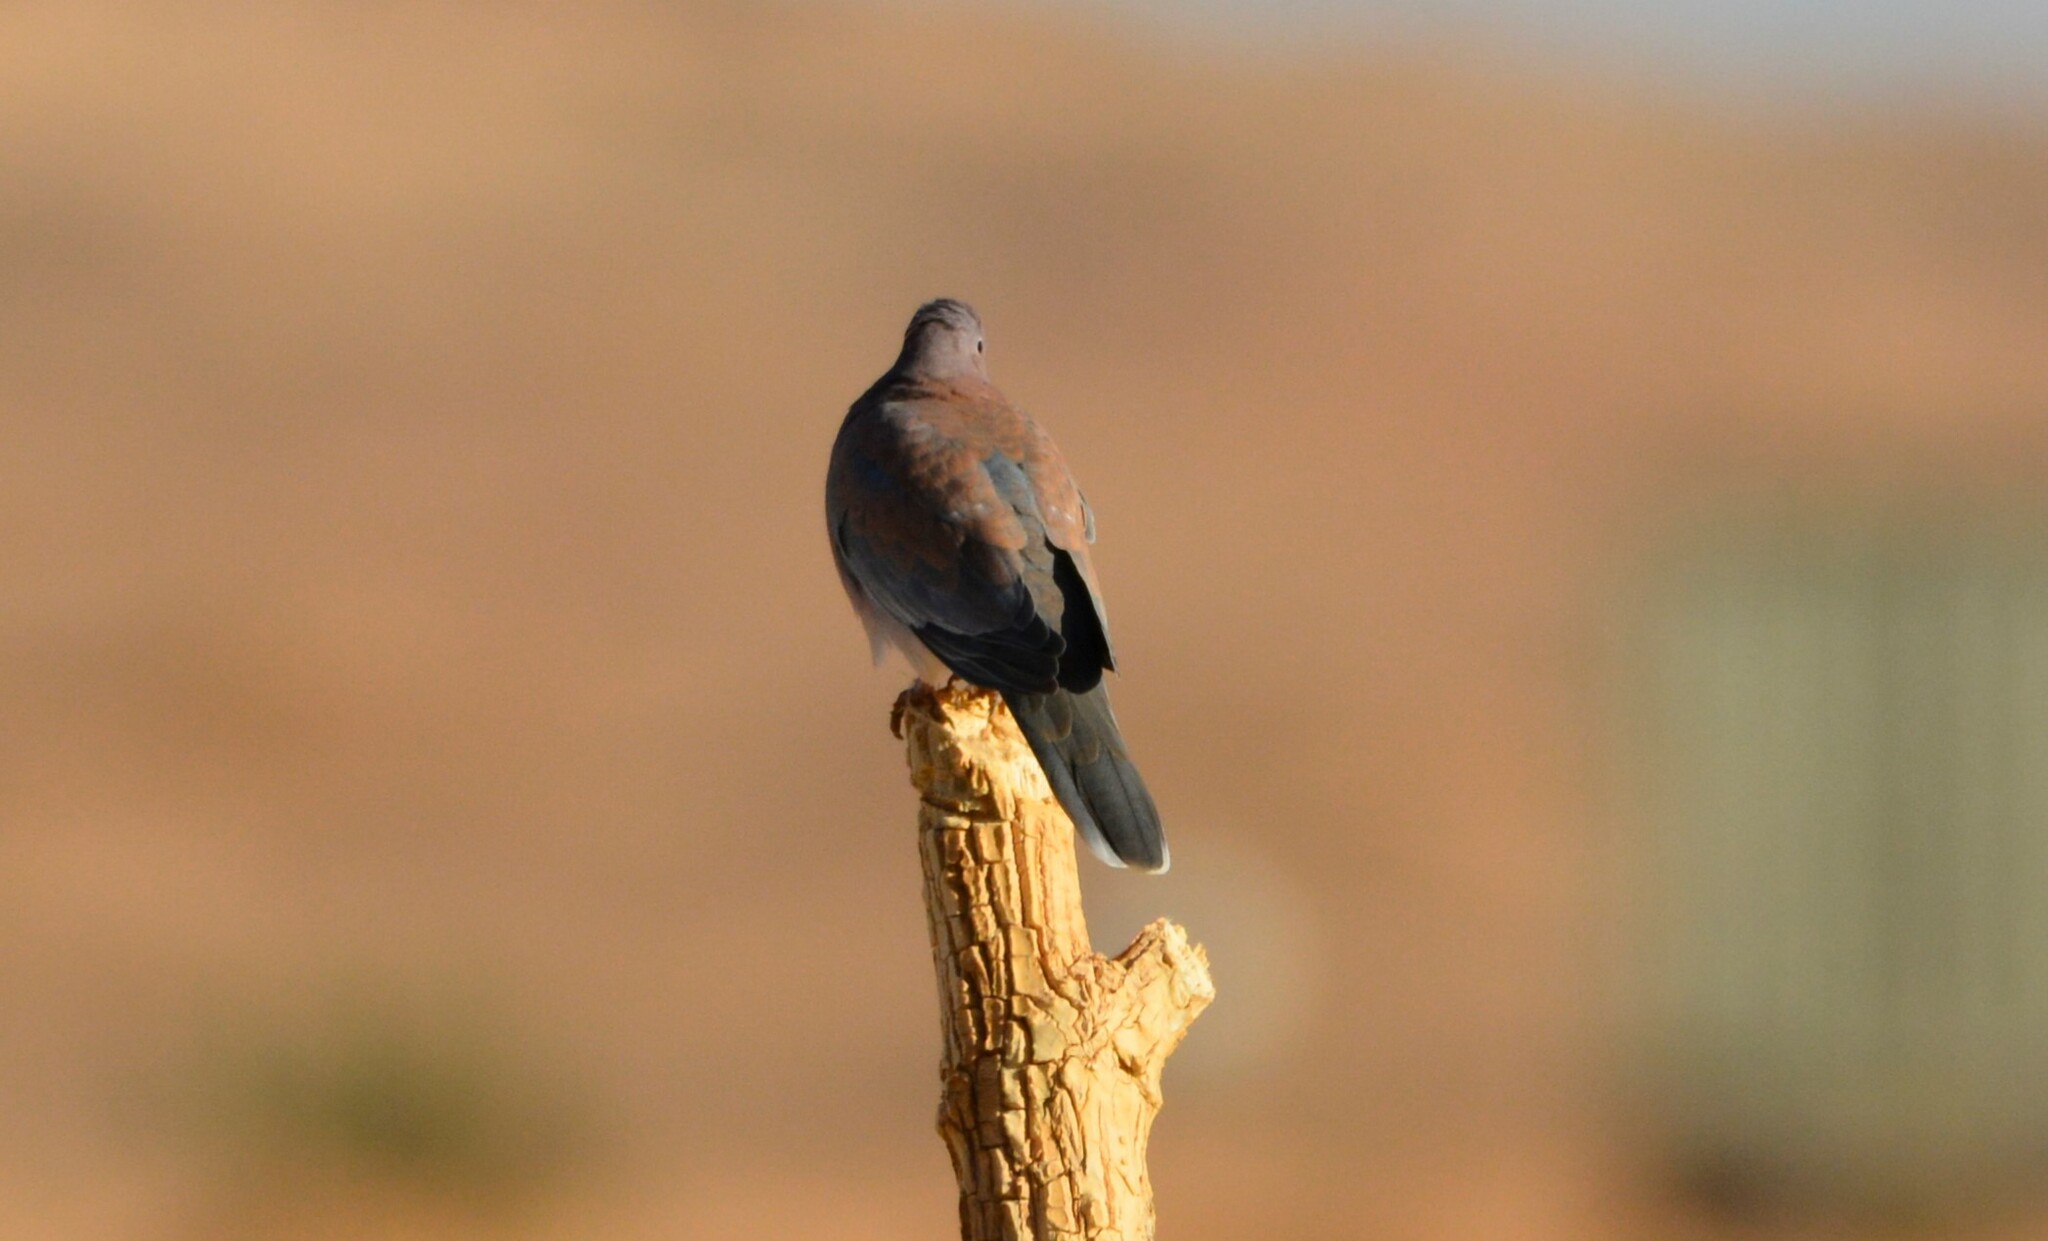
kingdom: Animalia
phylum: Chordata
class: Aves
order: Columbiformes
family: Columbidae
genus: Spilopelia
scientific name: Spilopelia senegalensis
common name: Laughing dove
